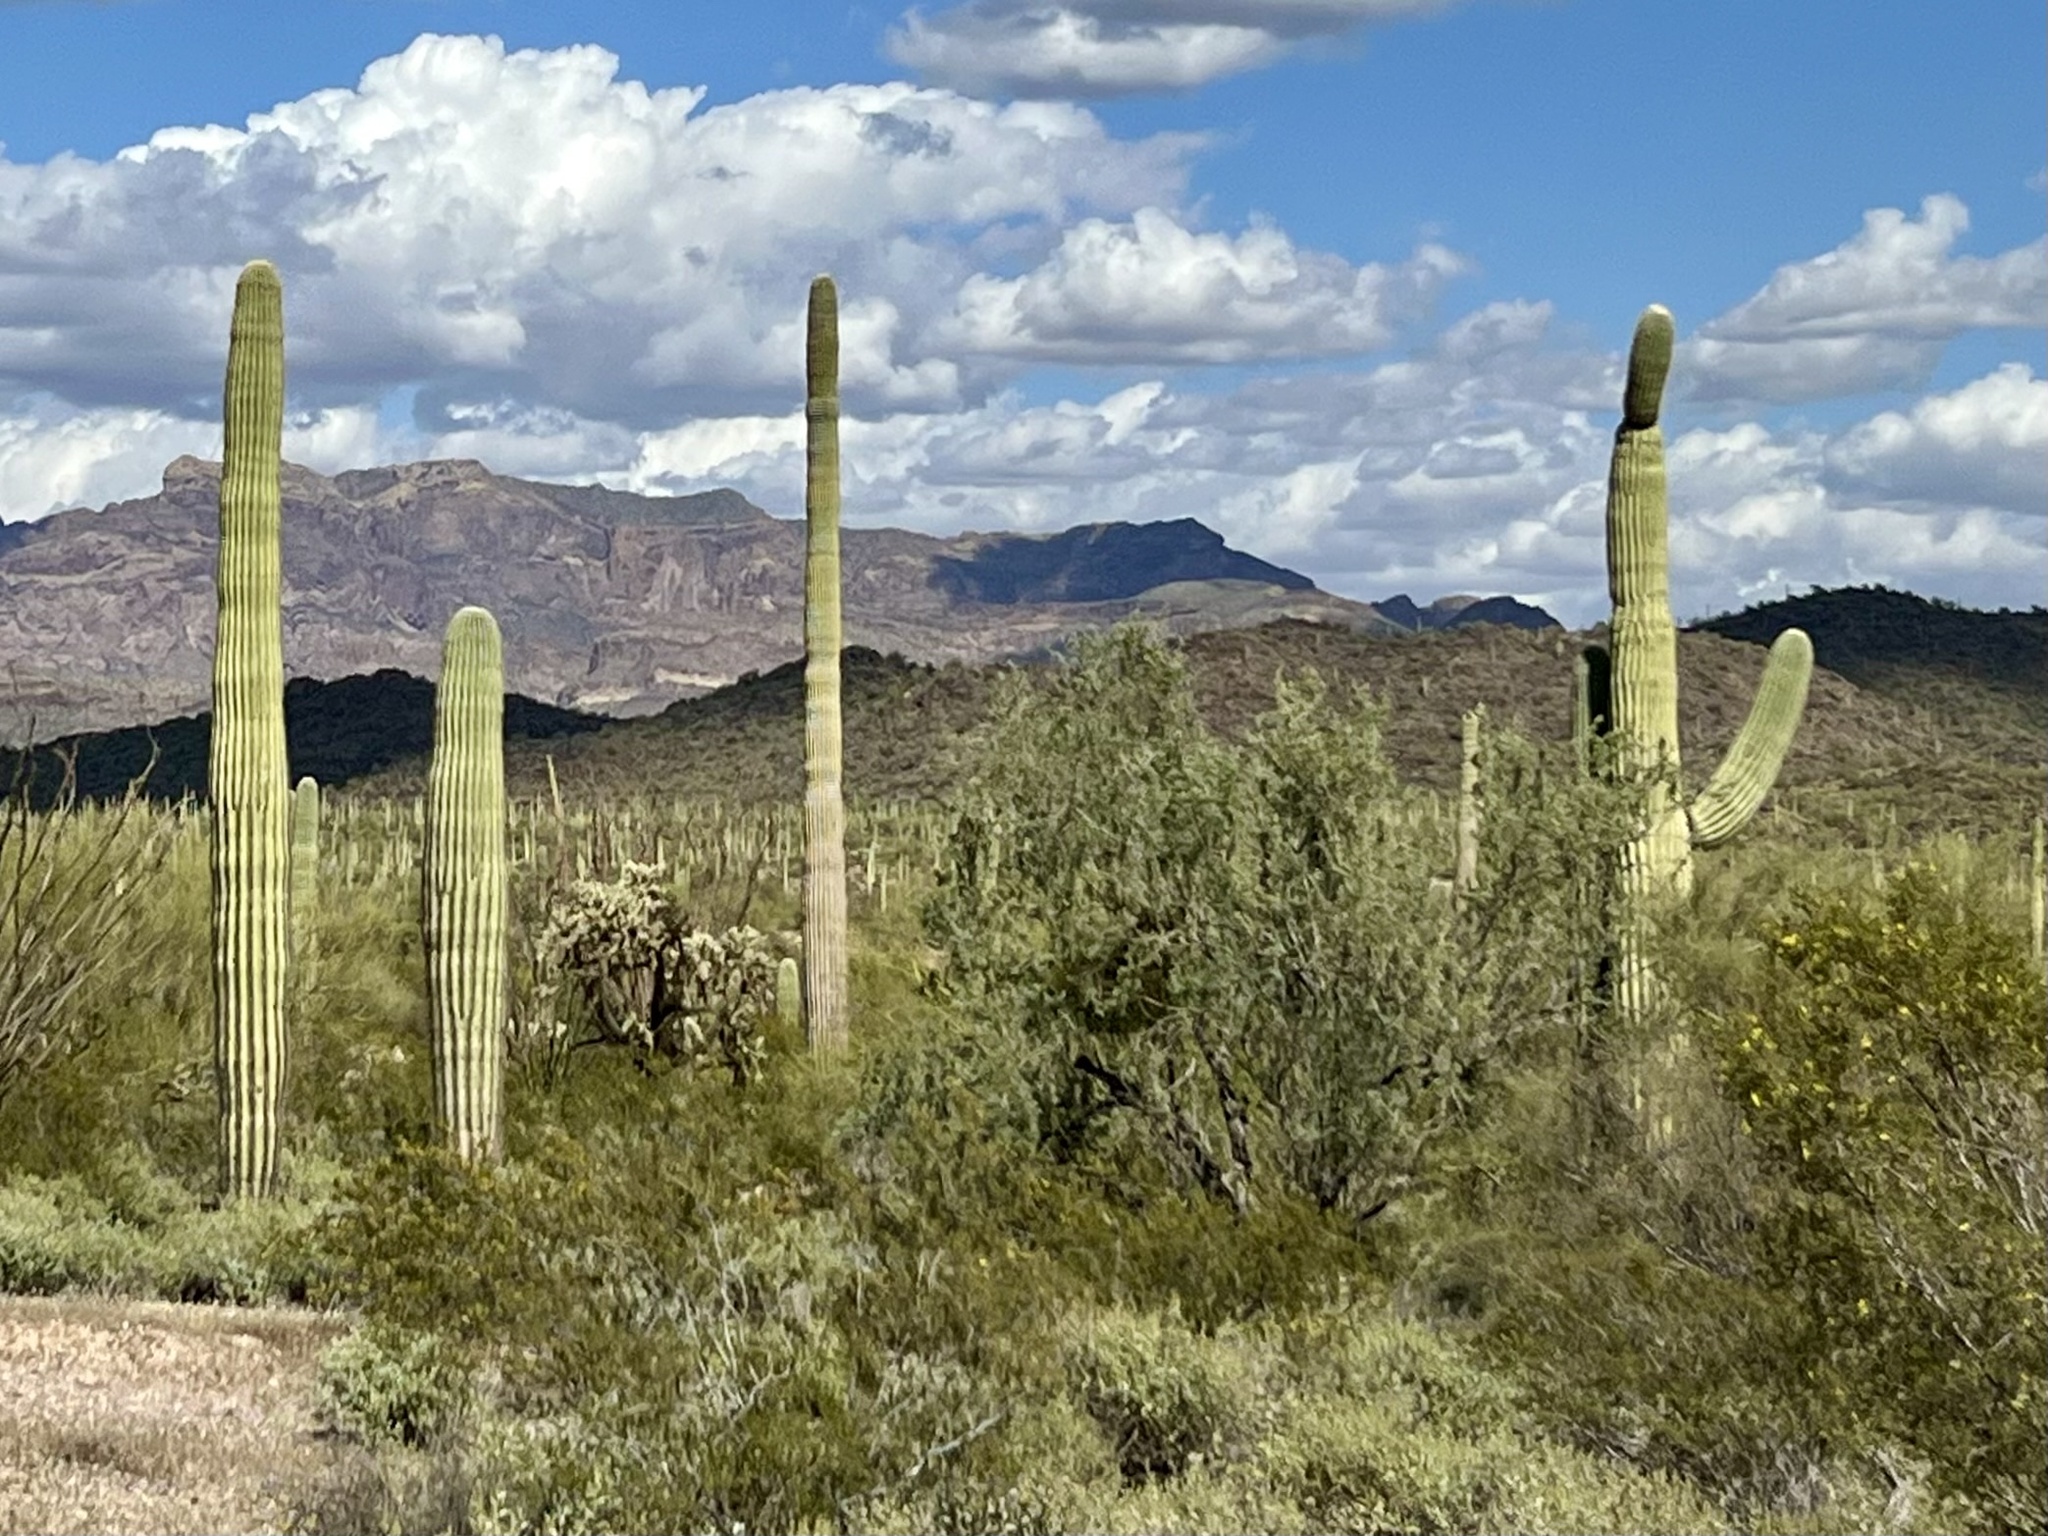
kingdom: Plantae
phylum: Tracheophyta
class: Magnoliopsida
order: Caryophyllales
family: Cactaceae
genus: Carnegiea
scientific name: Carnegiea gigantea
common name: Saguaro
